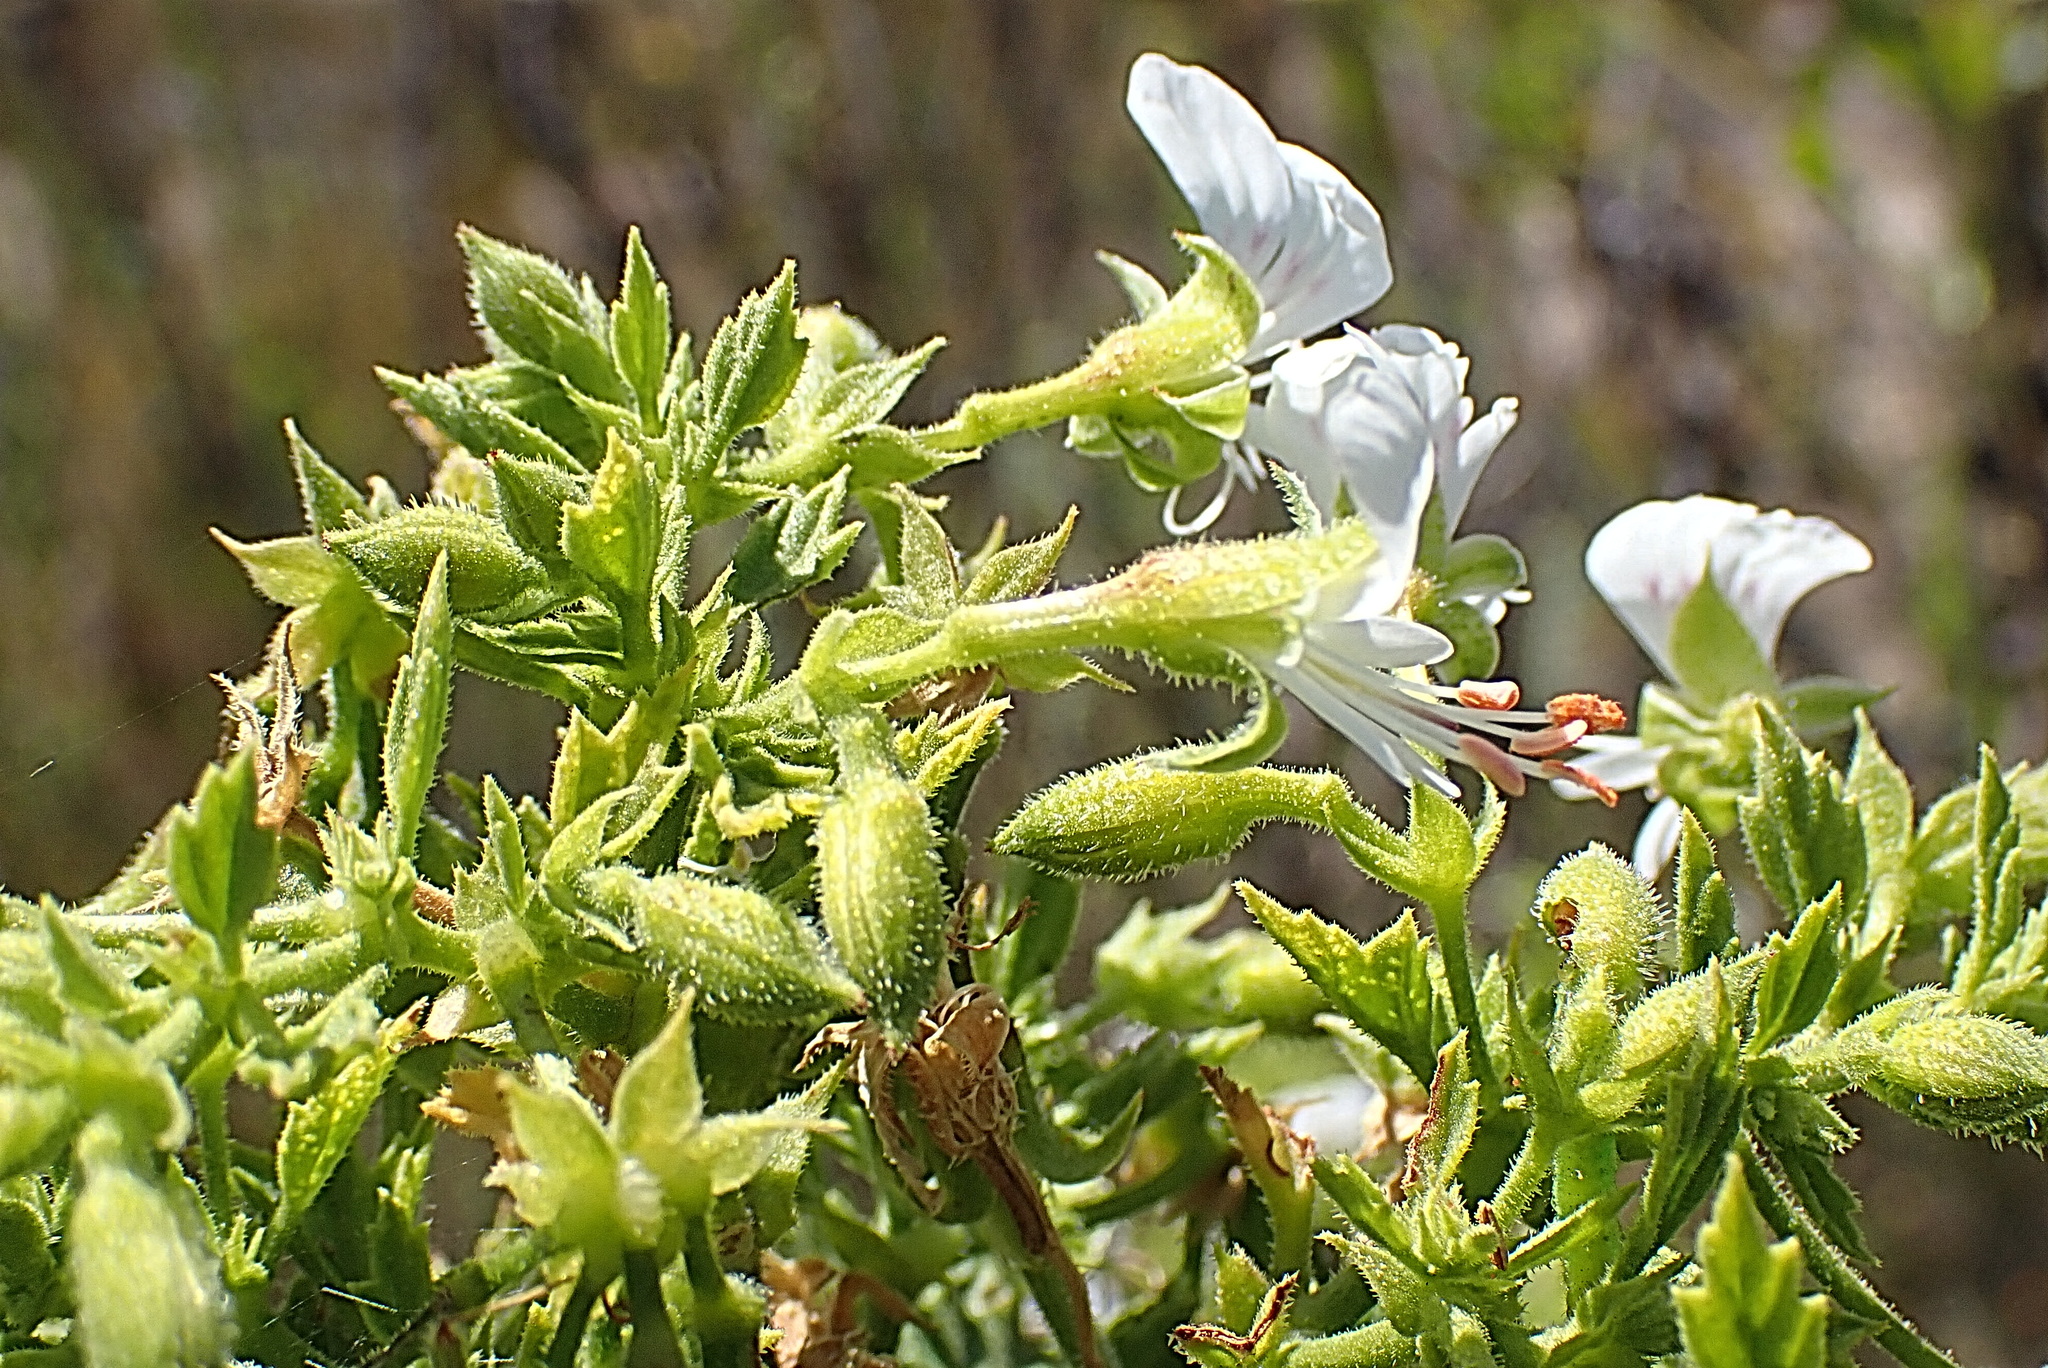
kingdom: Plantae
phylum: Tracheophyta
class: Magnoliopsida
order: Geraniales
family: Geraniaceae
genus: Pelargonium
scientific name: Pelargonium ribifolium
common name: Currant-leaf pelargonium
